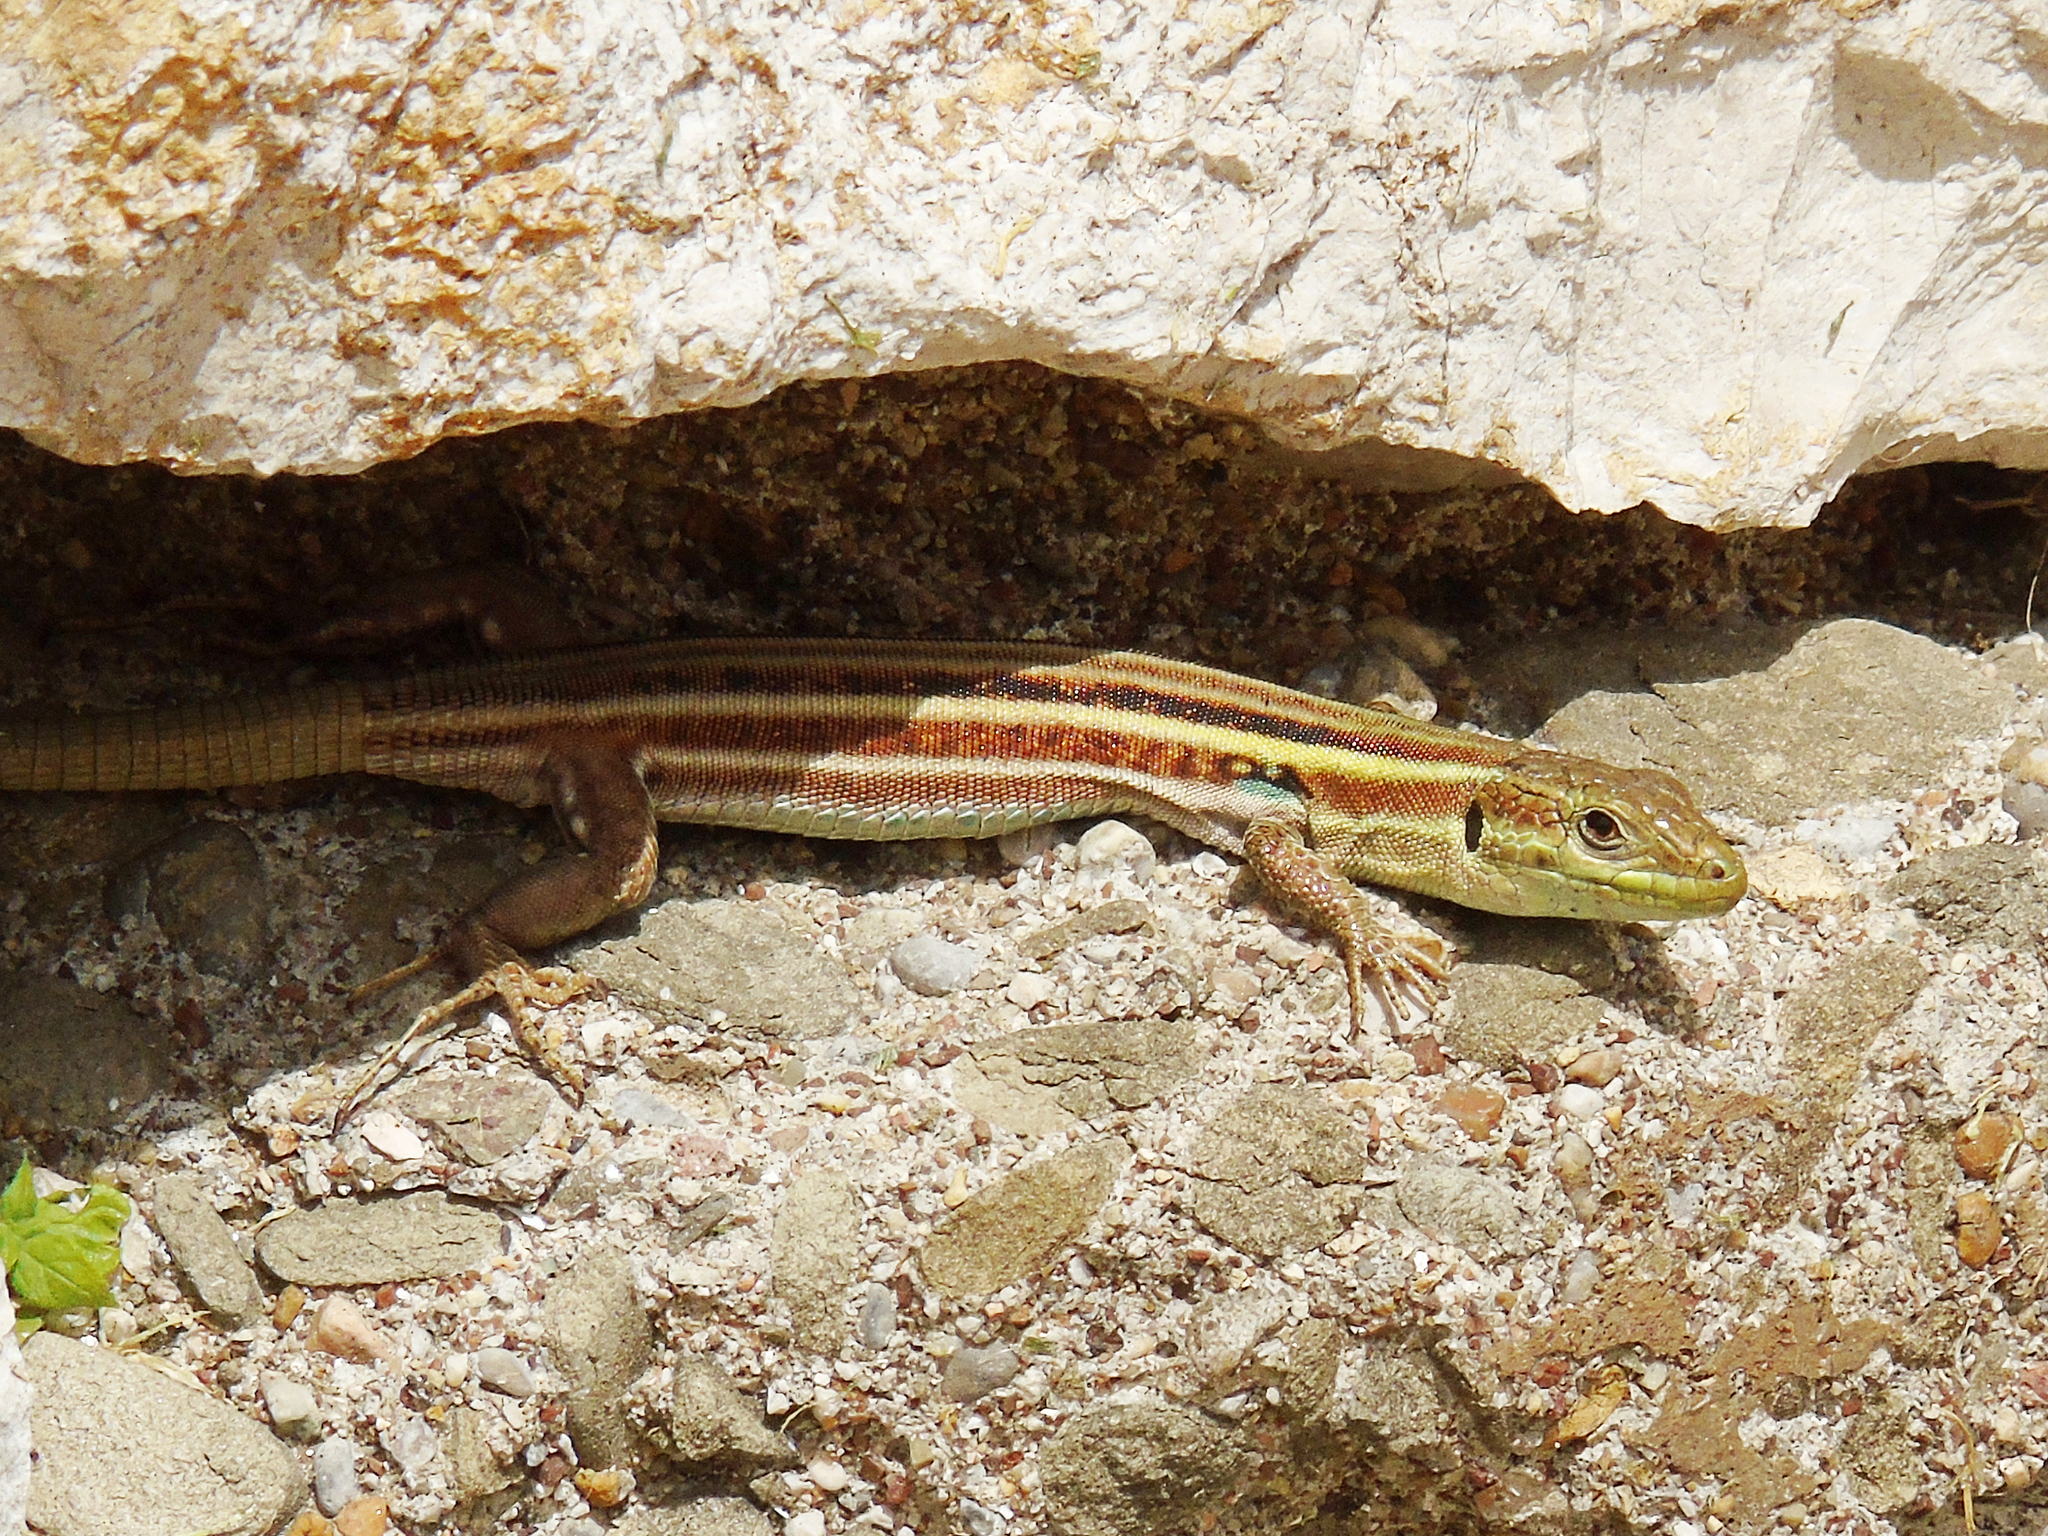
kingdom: Animalia
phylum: Chordata
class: Squamata
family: Lacertidae
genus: Podarcis
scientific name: Podarcis peloponnesiacus
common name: Peloponnese wall lizard
